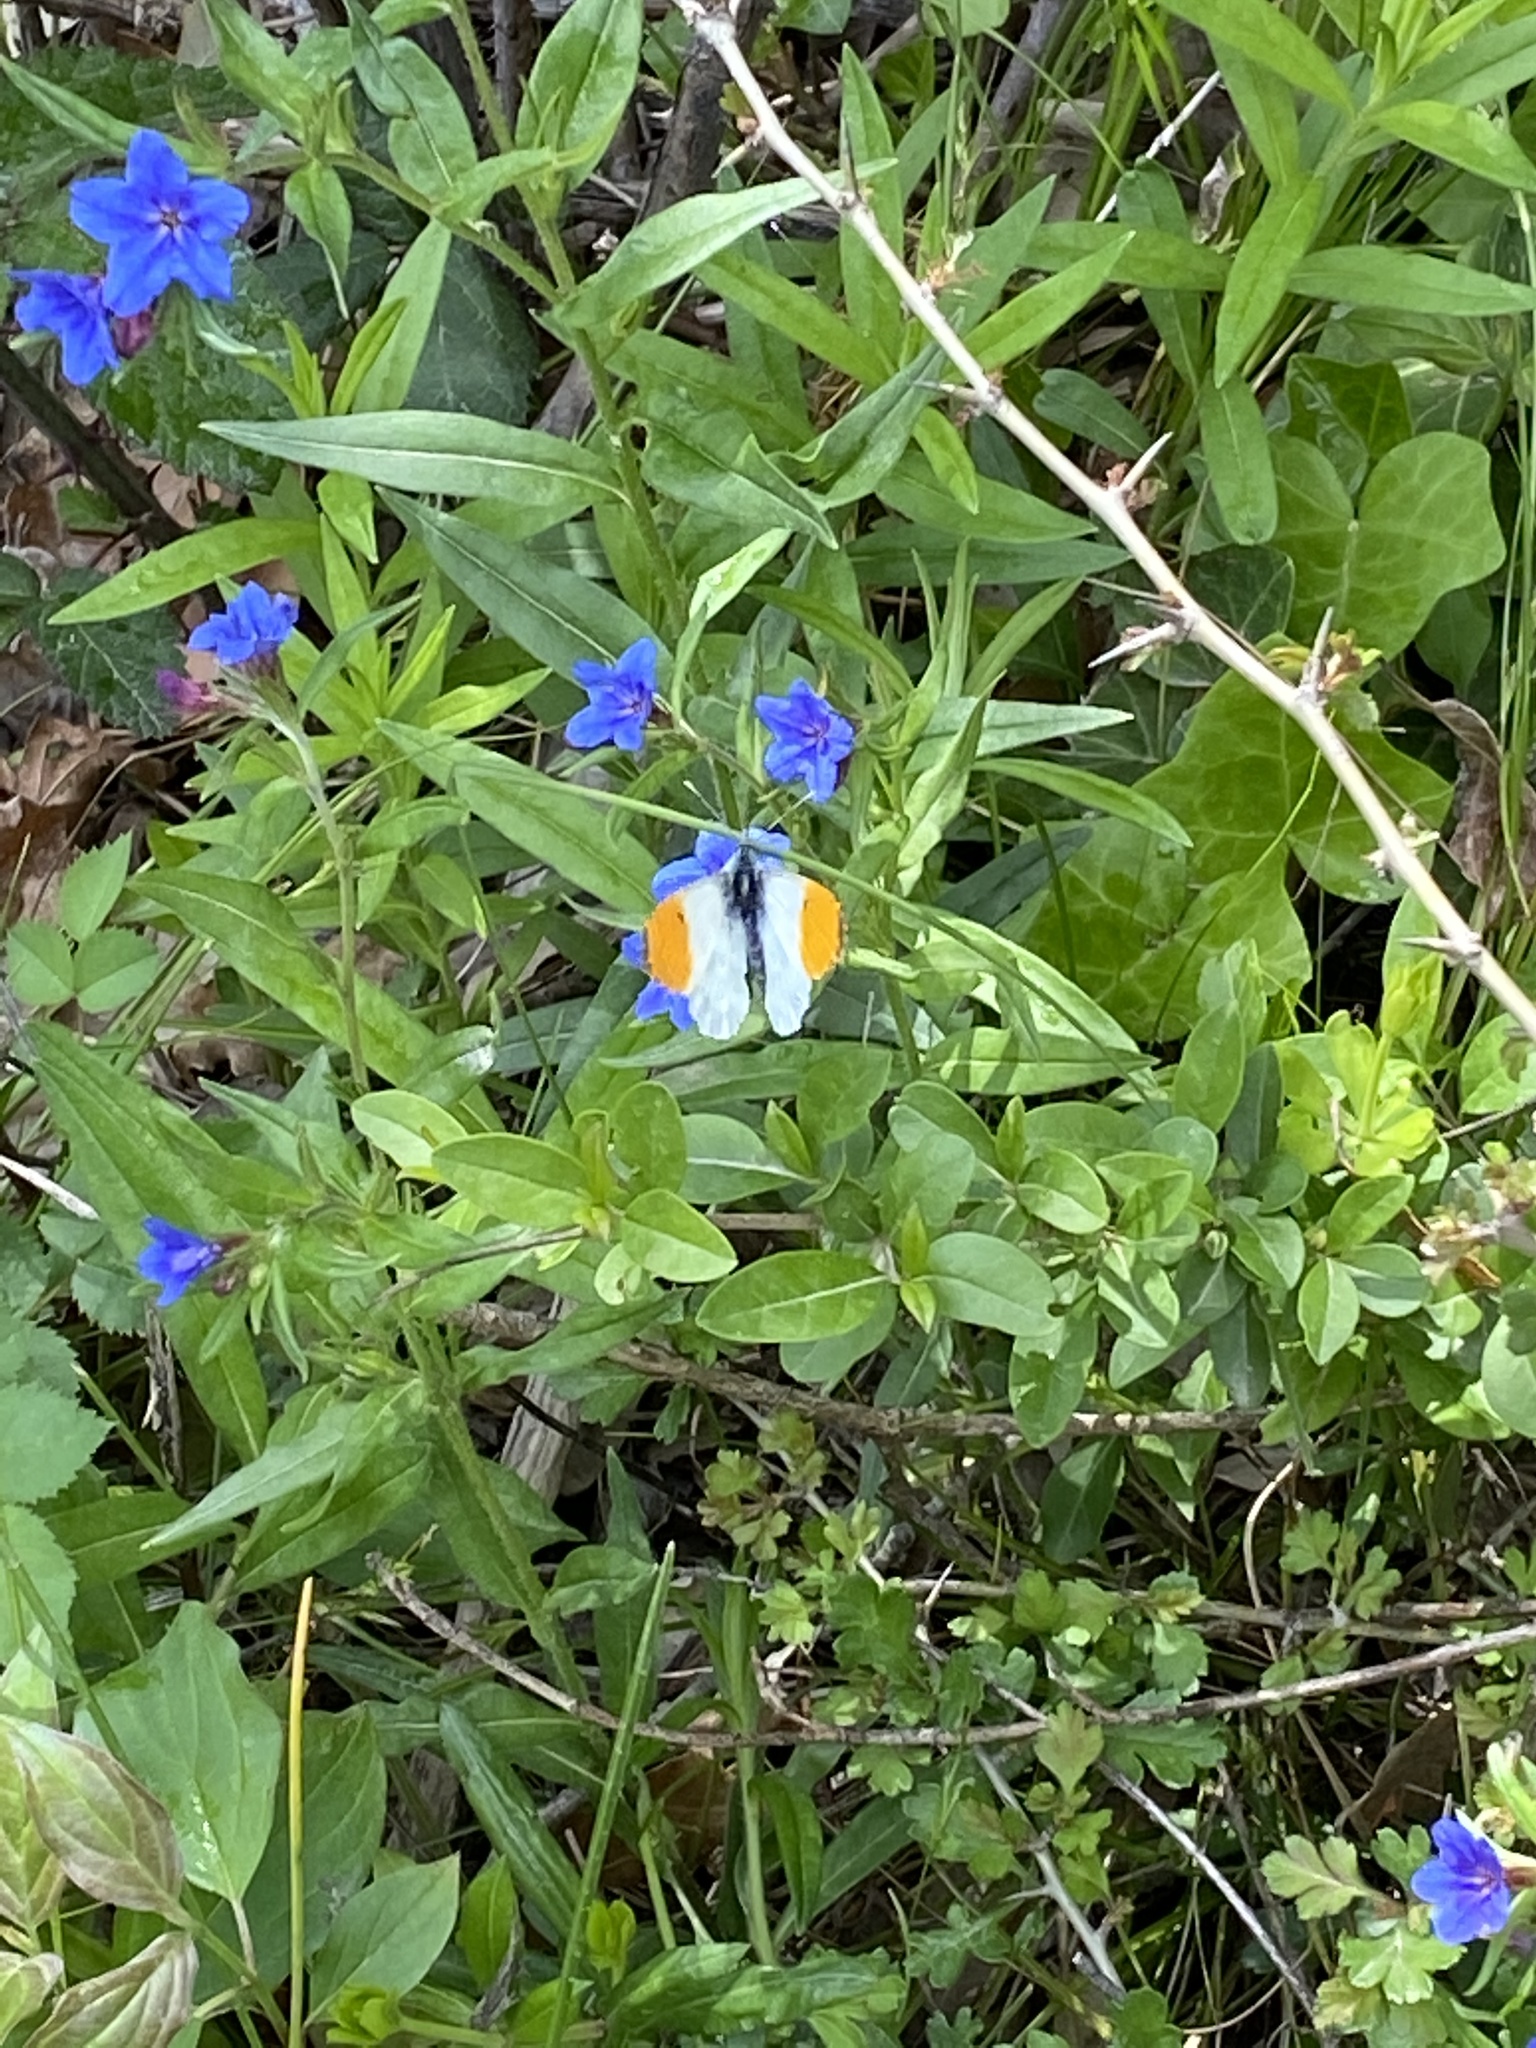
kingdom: Animalia
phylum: Arthropoda
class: Insecta
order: Lepidoptera
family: Pieridae
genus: Anthocharis
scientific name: Anthocharis cardamines
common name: Orange-tip
